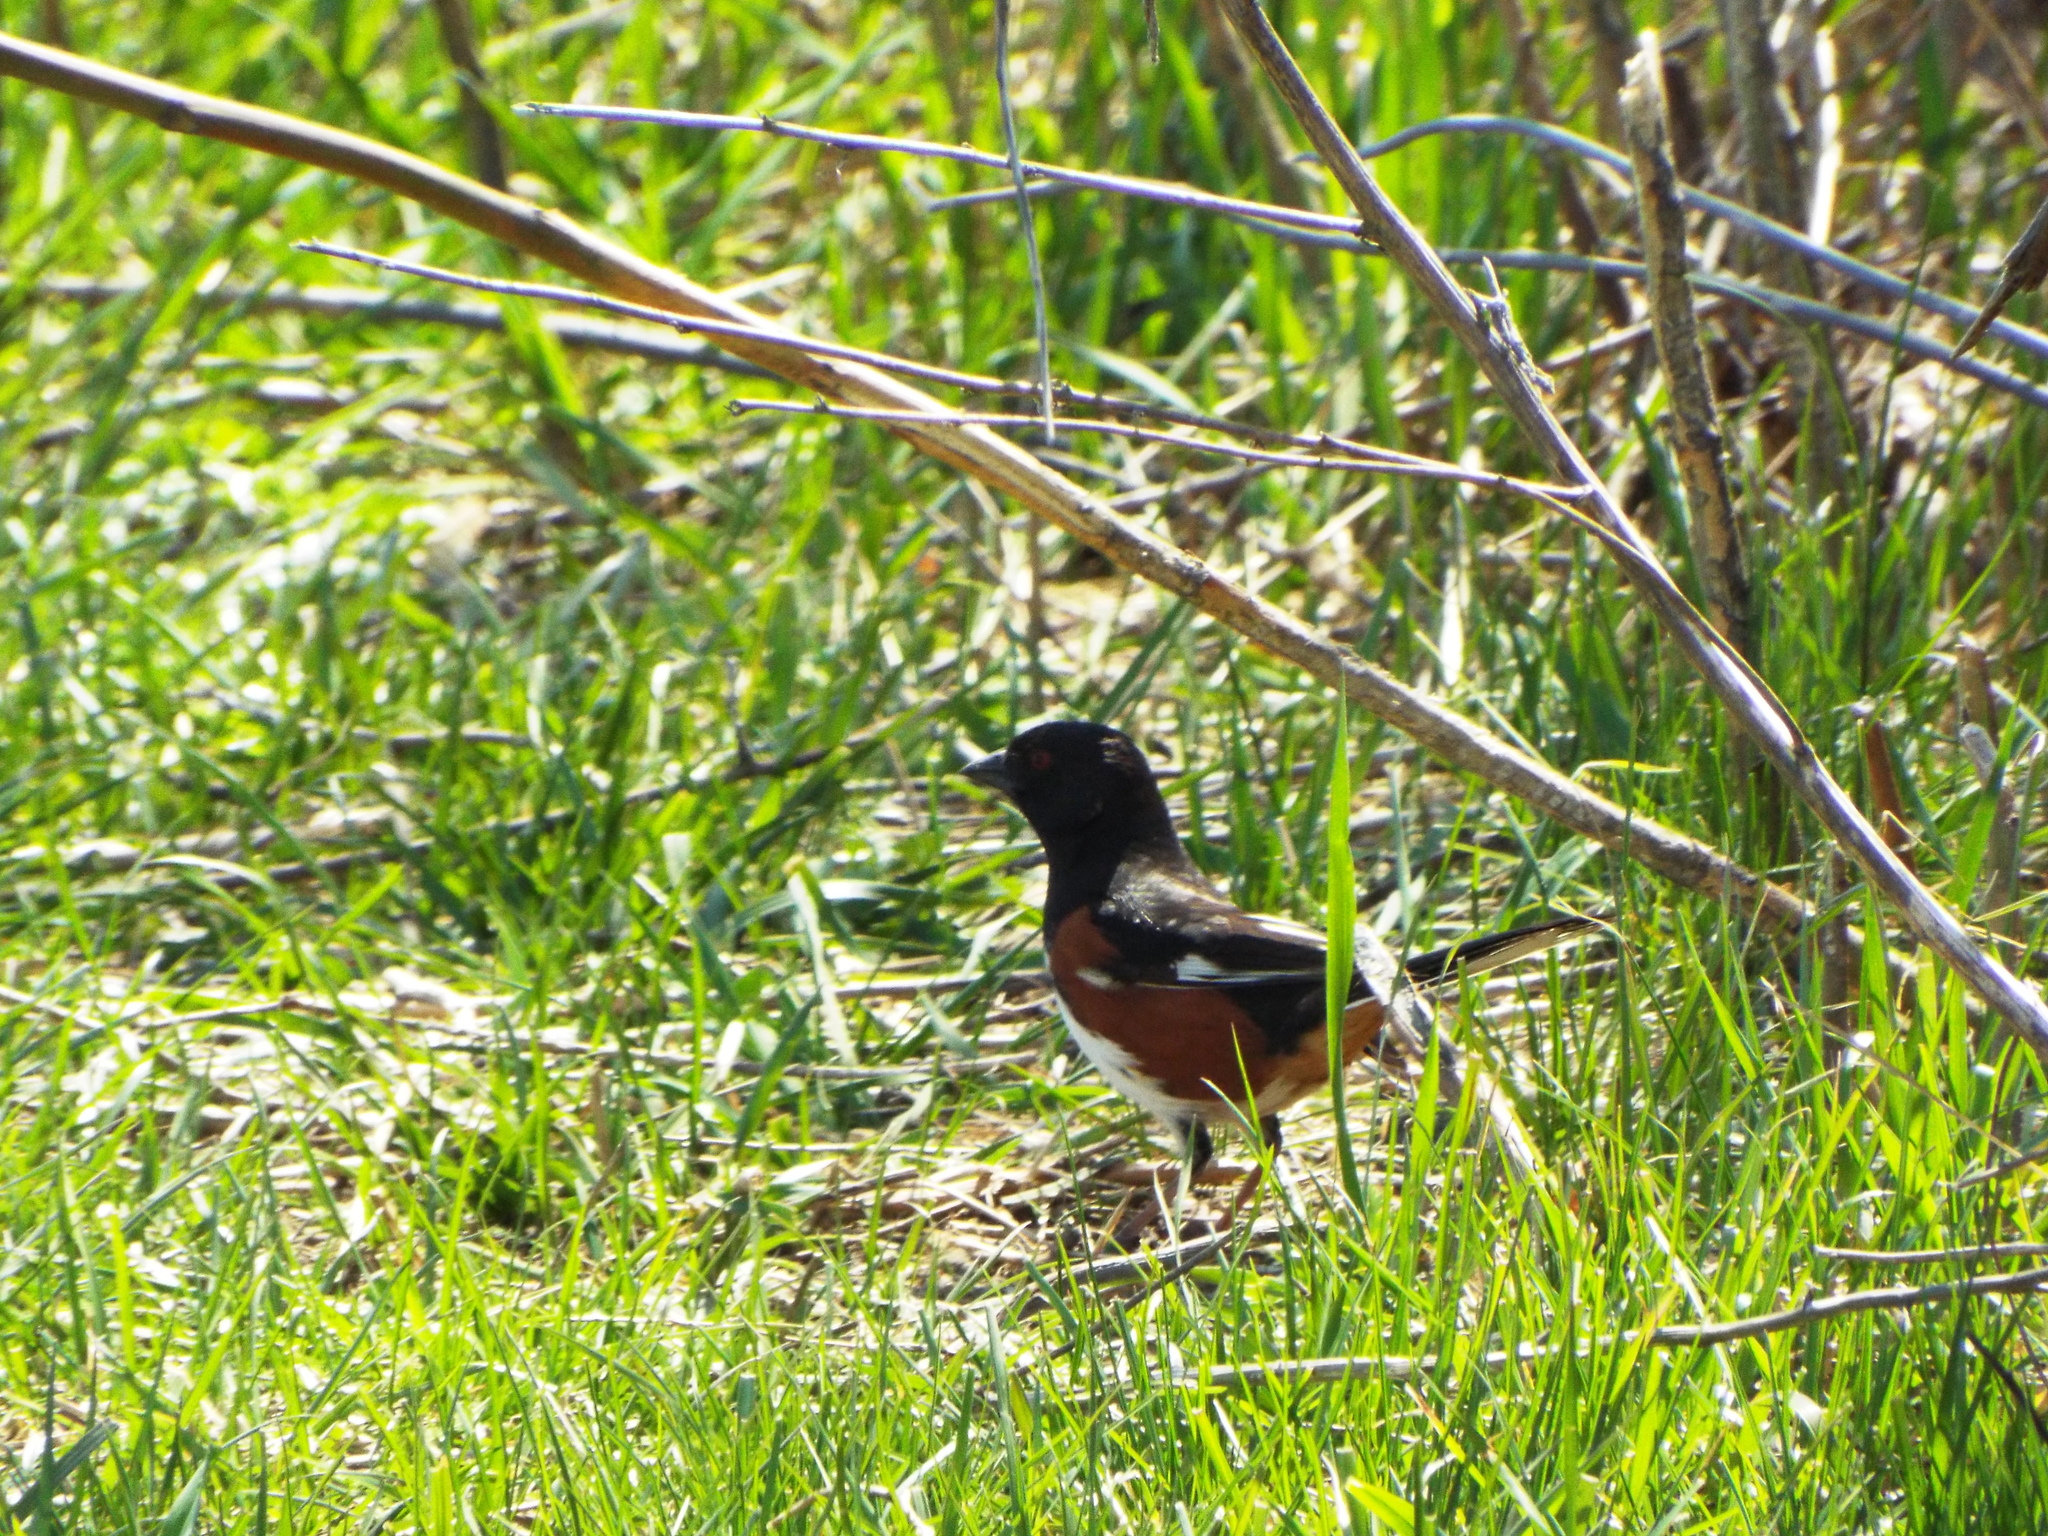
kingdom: Animalia
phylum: Chordata
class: Aves
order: Passeriformes
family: Passerellidae
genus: Pipilo
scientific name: Pipilo erythrophthalmus
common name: Eastern towhee
